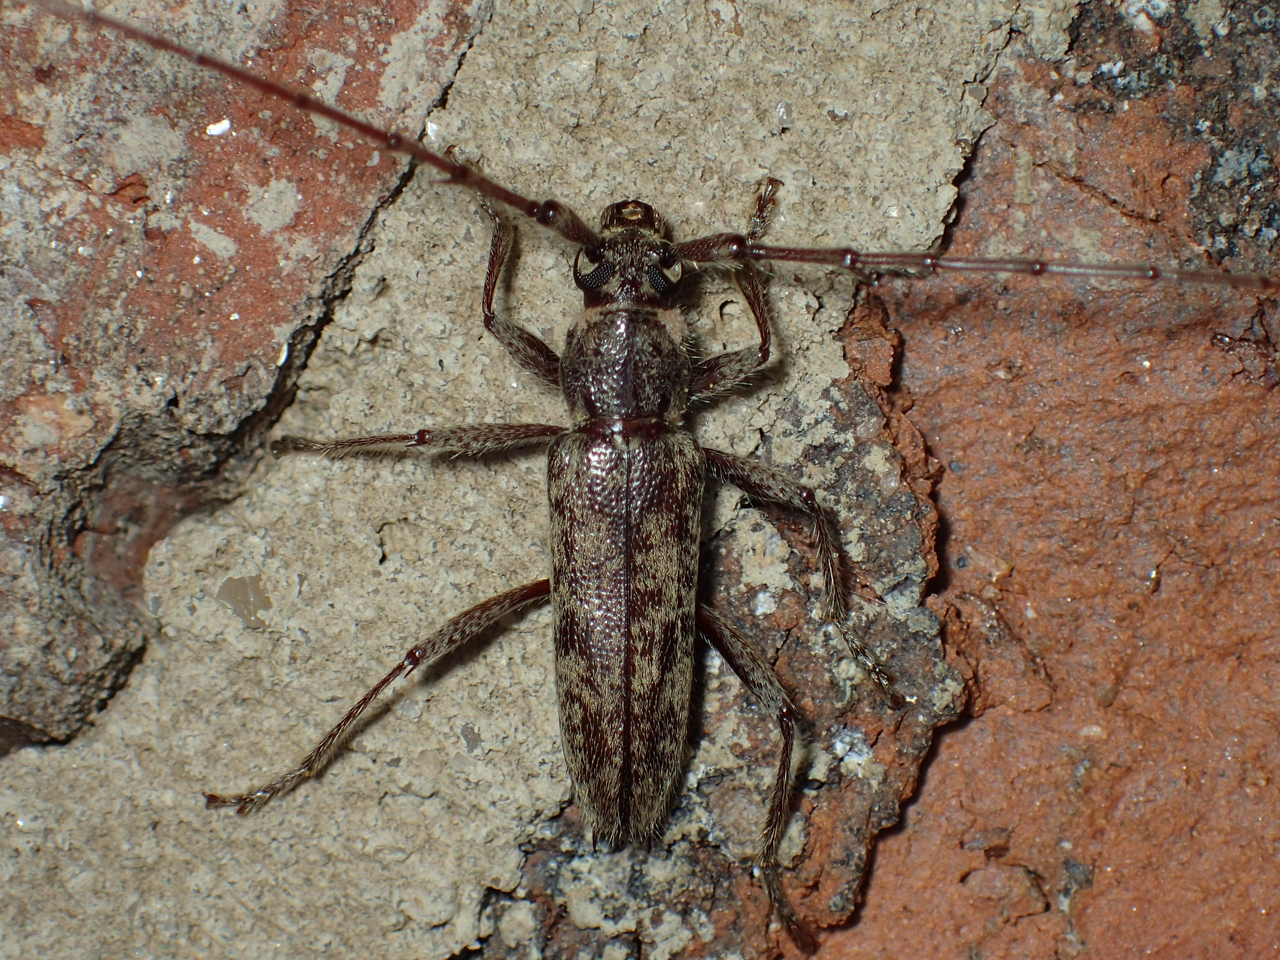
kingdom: Animalia
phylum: Arthropoda
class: Insecta
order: Coleoptera
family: Cerambycidae
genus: Elaphidion
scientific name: Elaphidion mucronatum
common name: Spined oak borer
